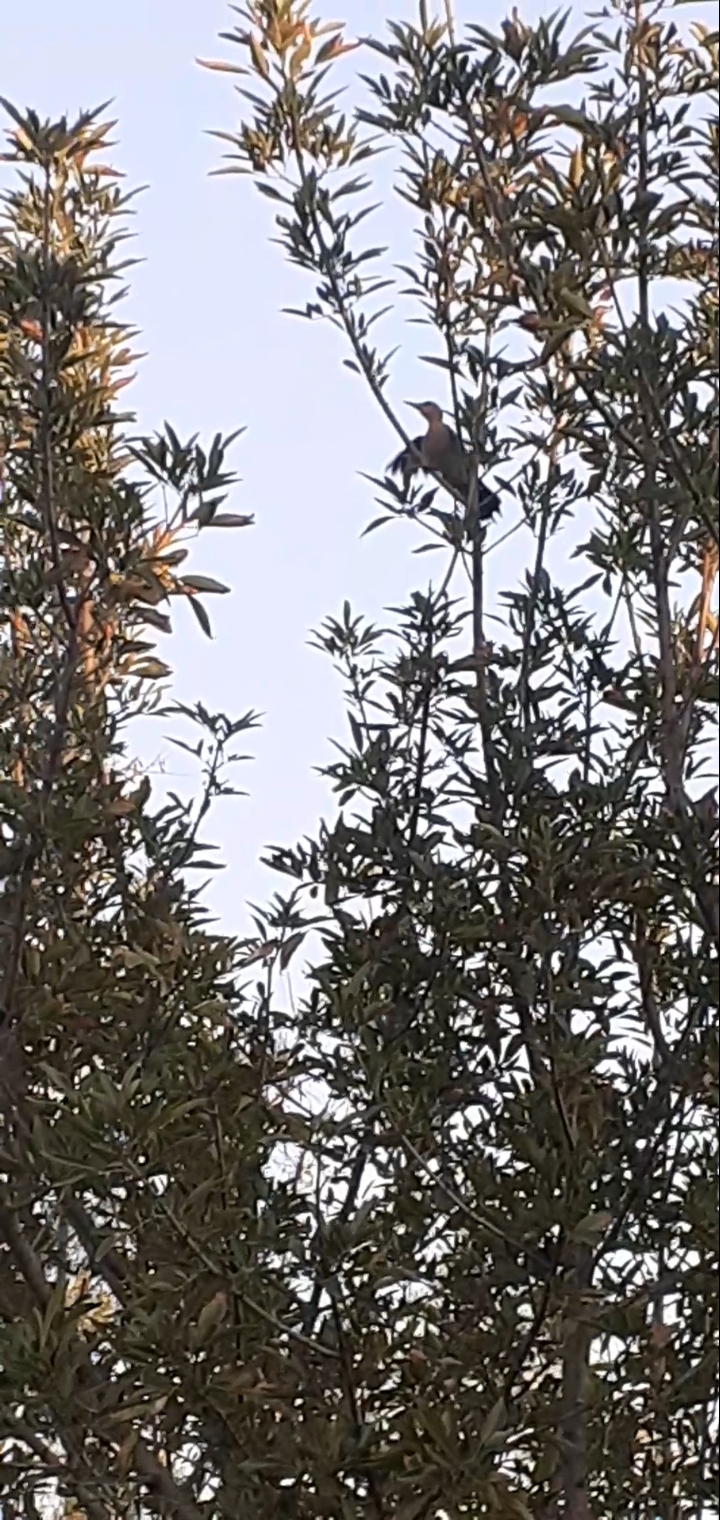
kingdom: Animalia
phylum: Chordata
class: Aves
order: Piciformes
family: Picidae
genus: Melanerpes
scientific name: Melanerpes aurifrons
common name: Golden-fronted woodpecker
